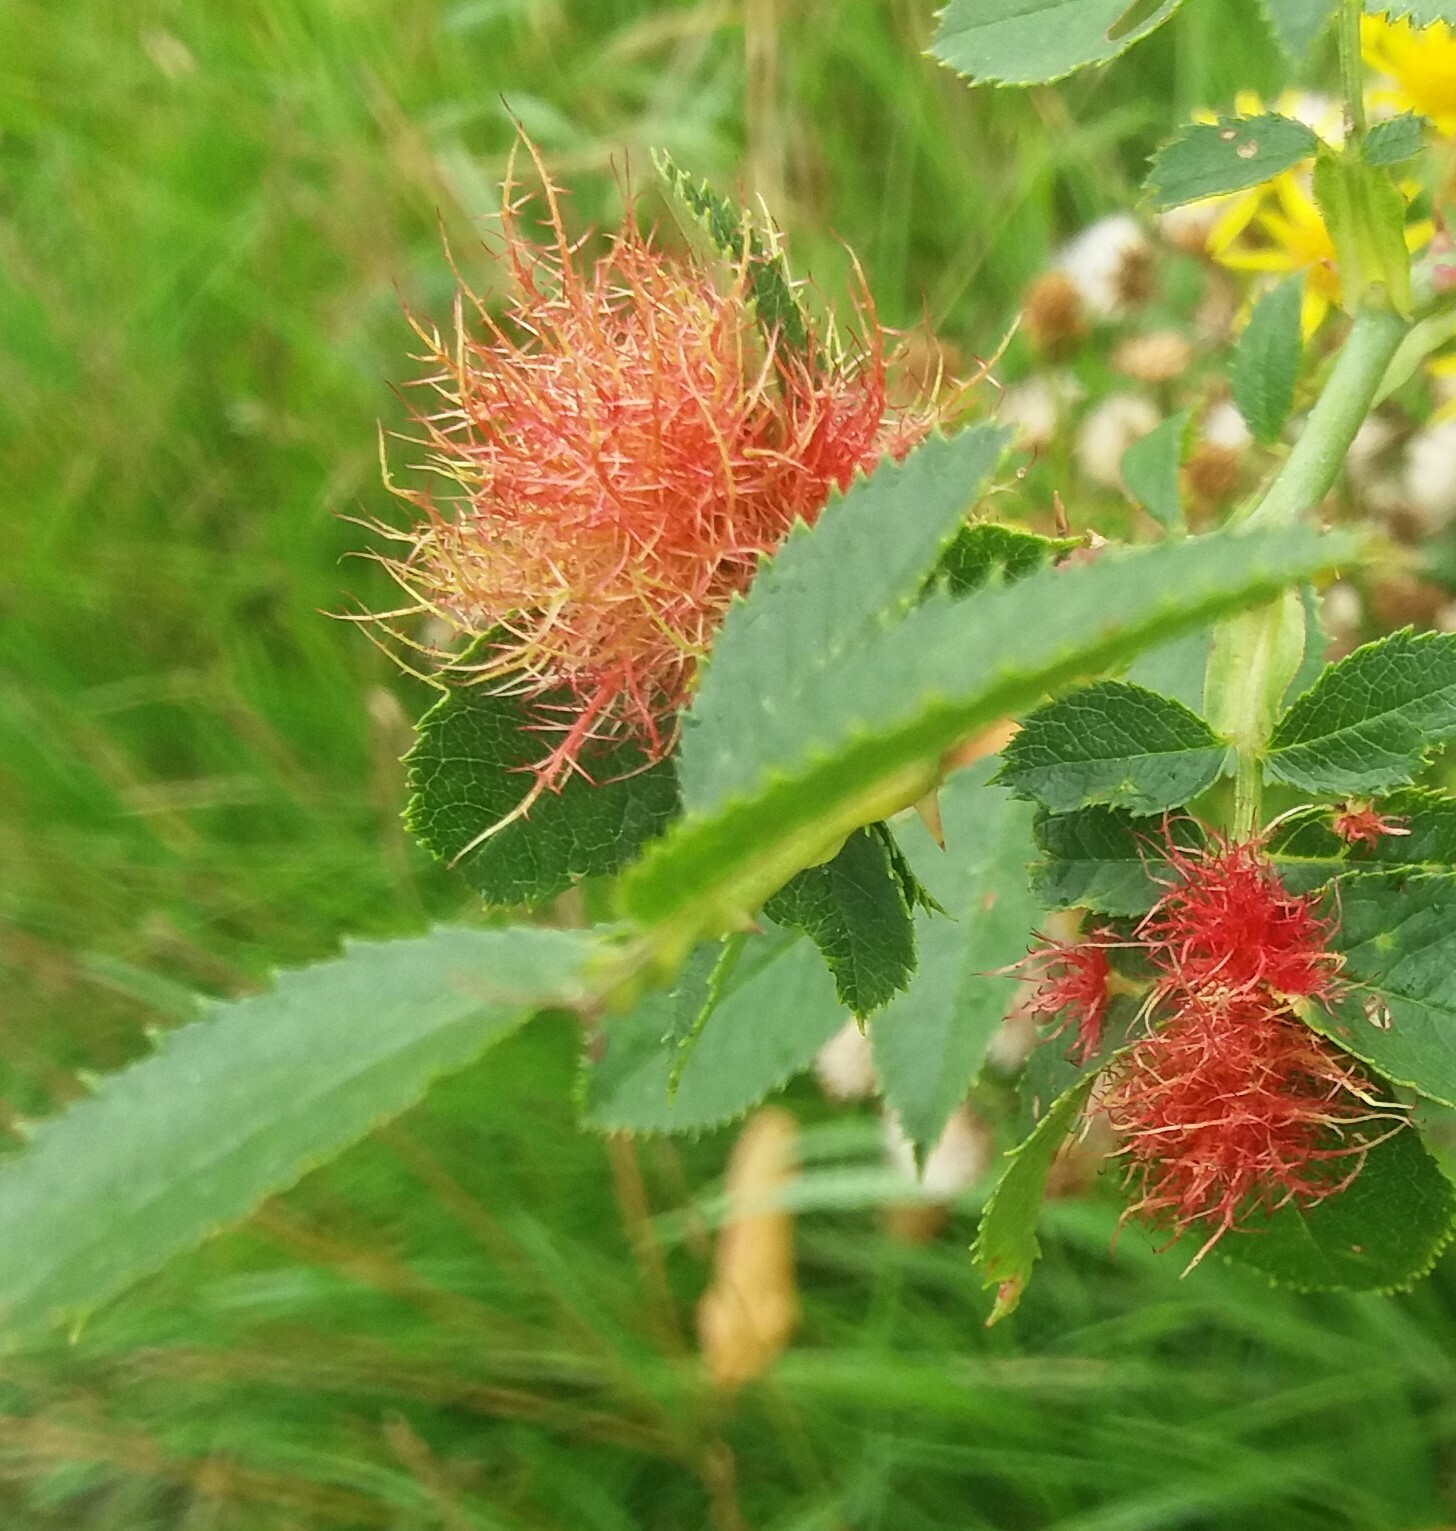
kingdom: Animalia
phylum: Arthropoda
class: Insecta
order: Hymenoptera
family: Cynipidae
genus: Diplolepis
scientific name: Diplolepis rosae
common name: Bedeguar gall
